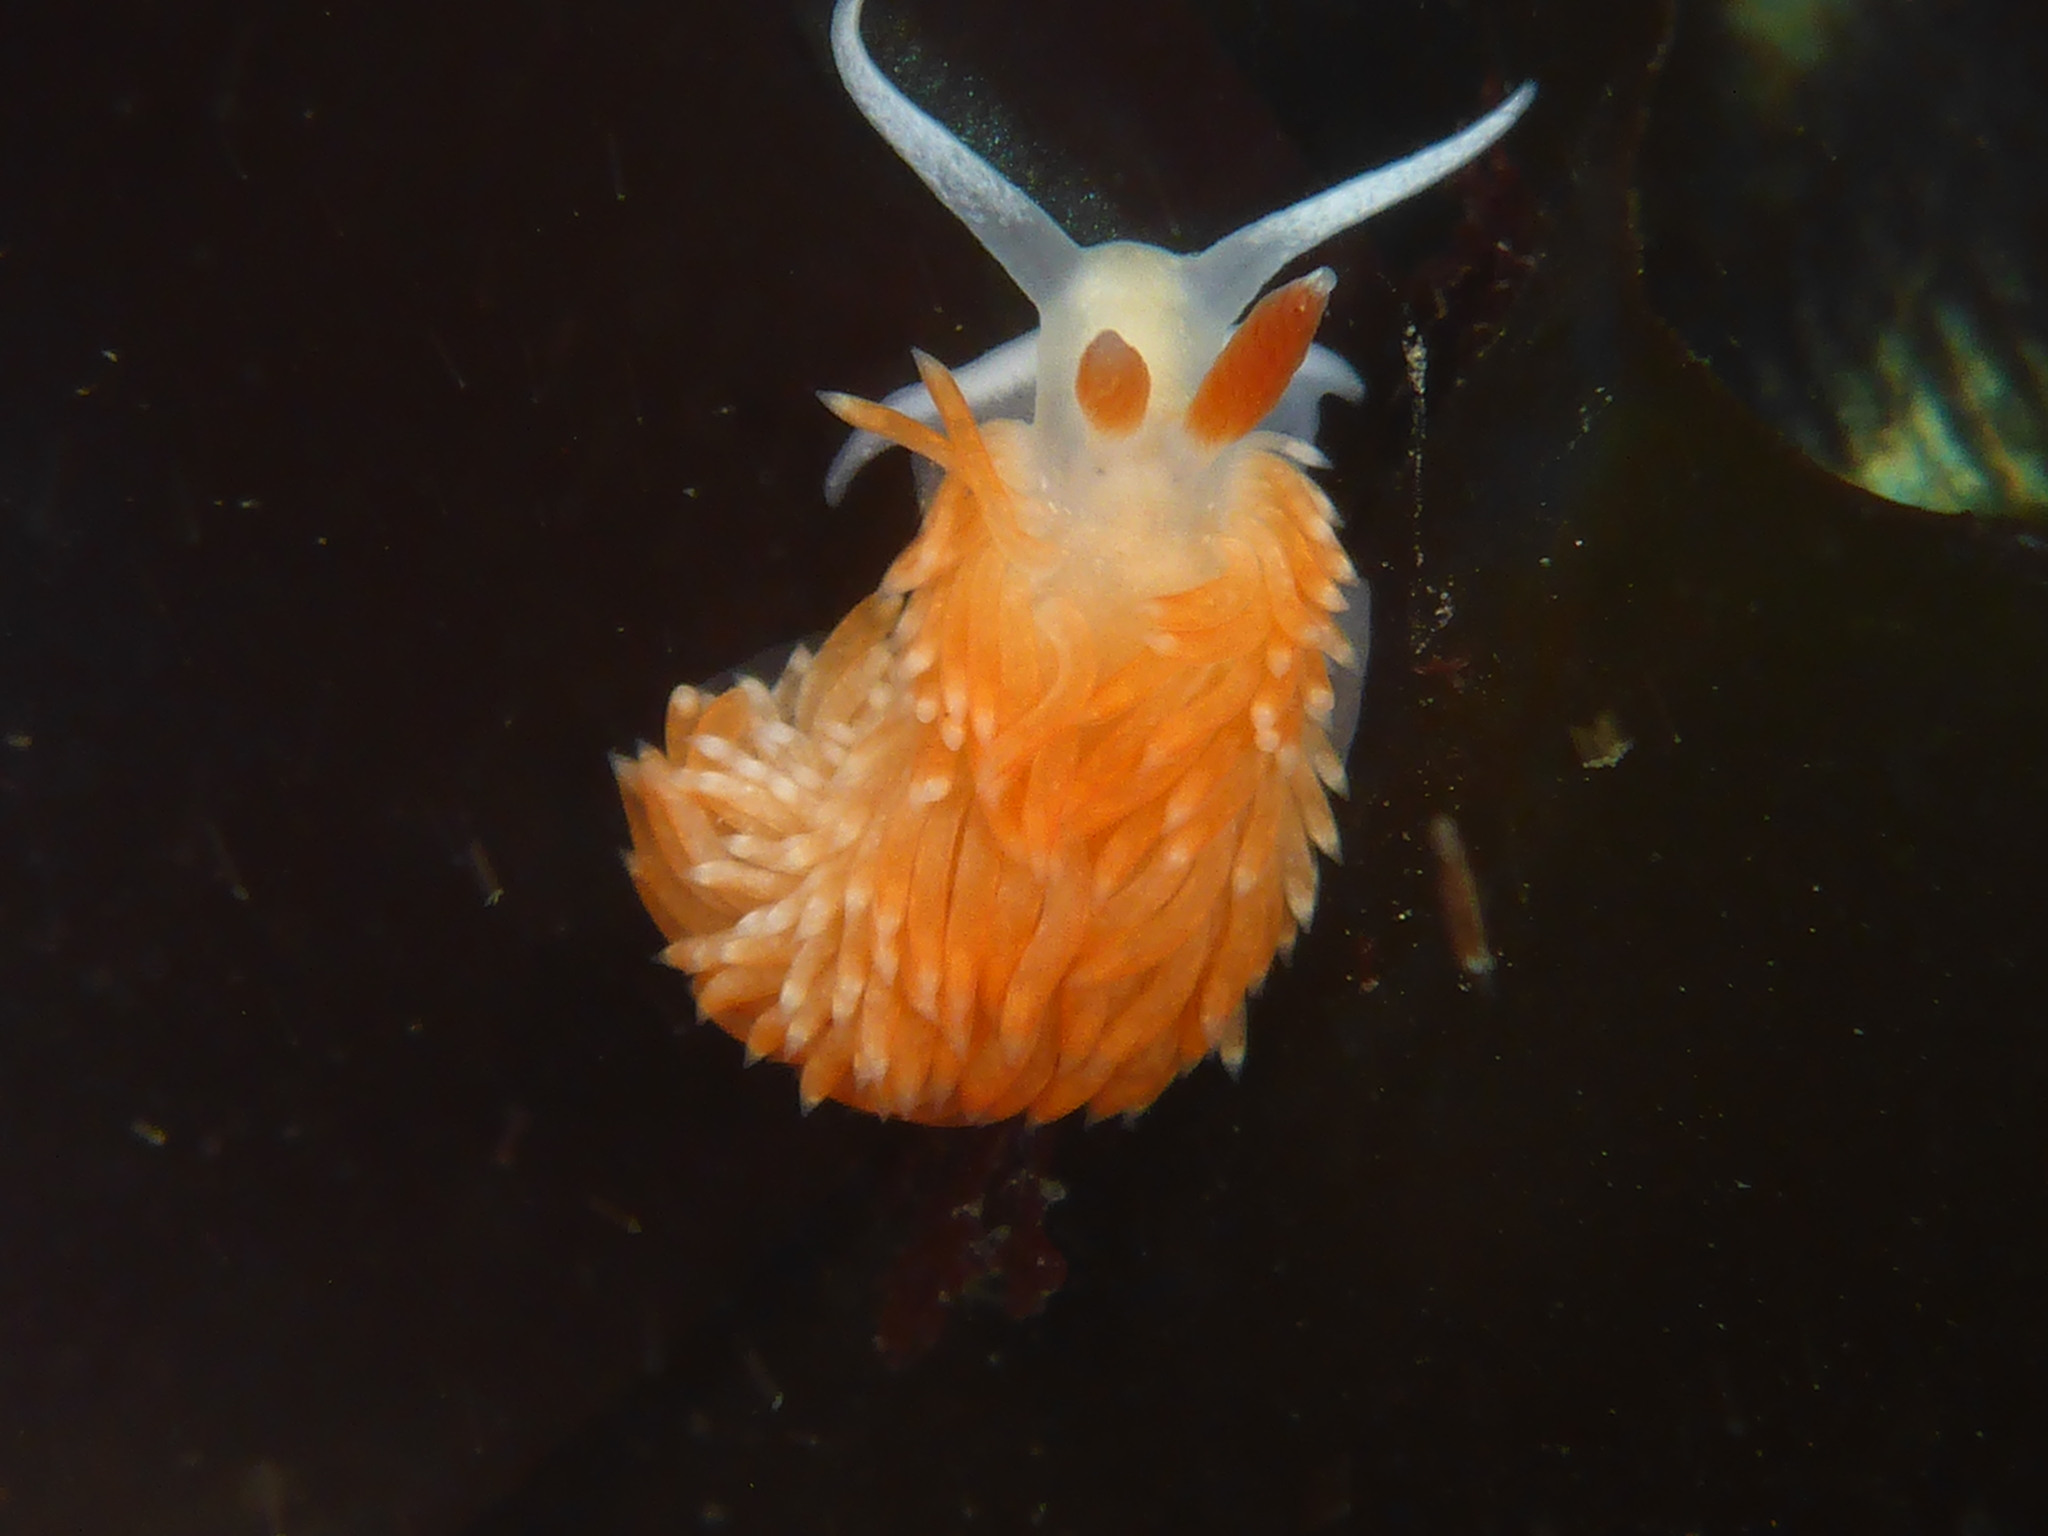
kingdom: Animalia
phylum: Mollusca
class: Gastropoda
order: Nudibranchia
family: Aeolidiidae
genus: Anteaeolidiella
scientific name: Anteaeolidiella oliviae
